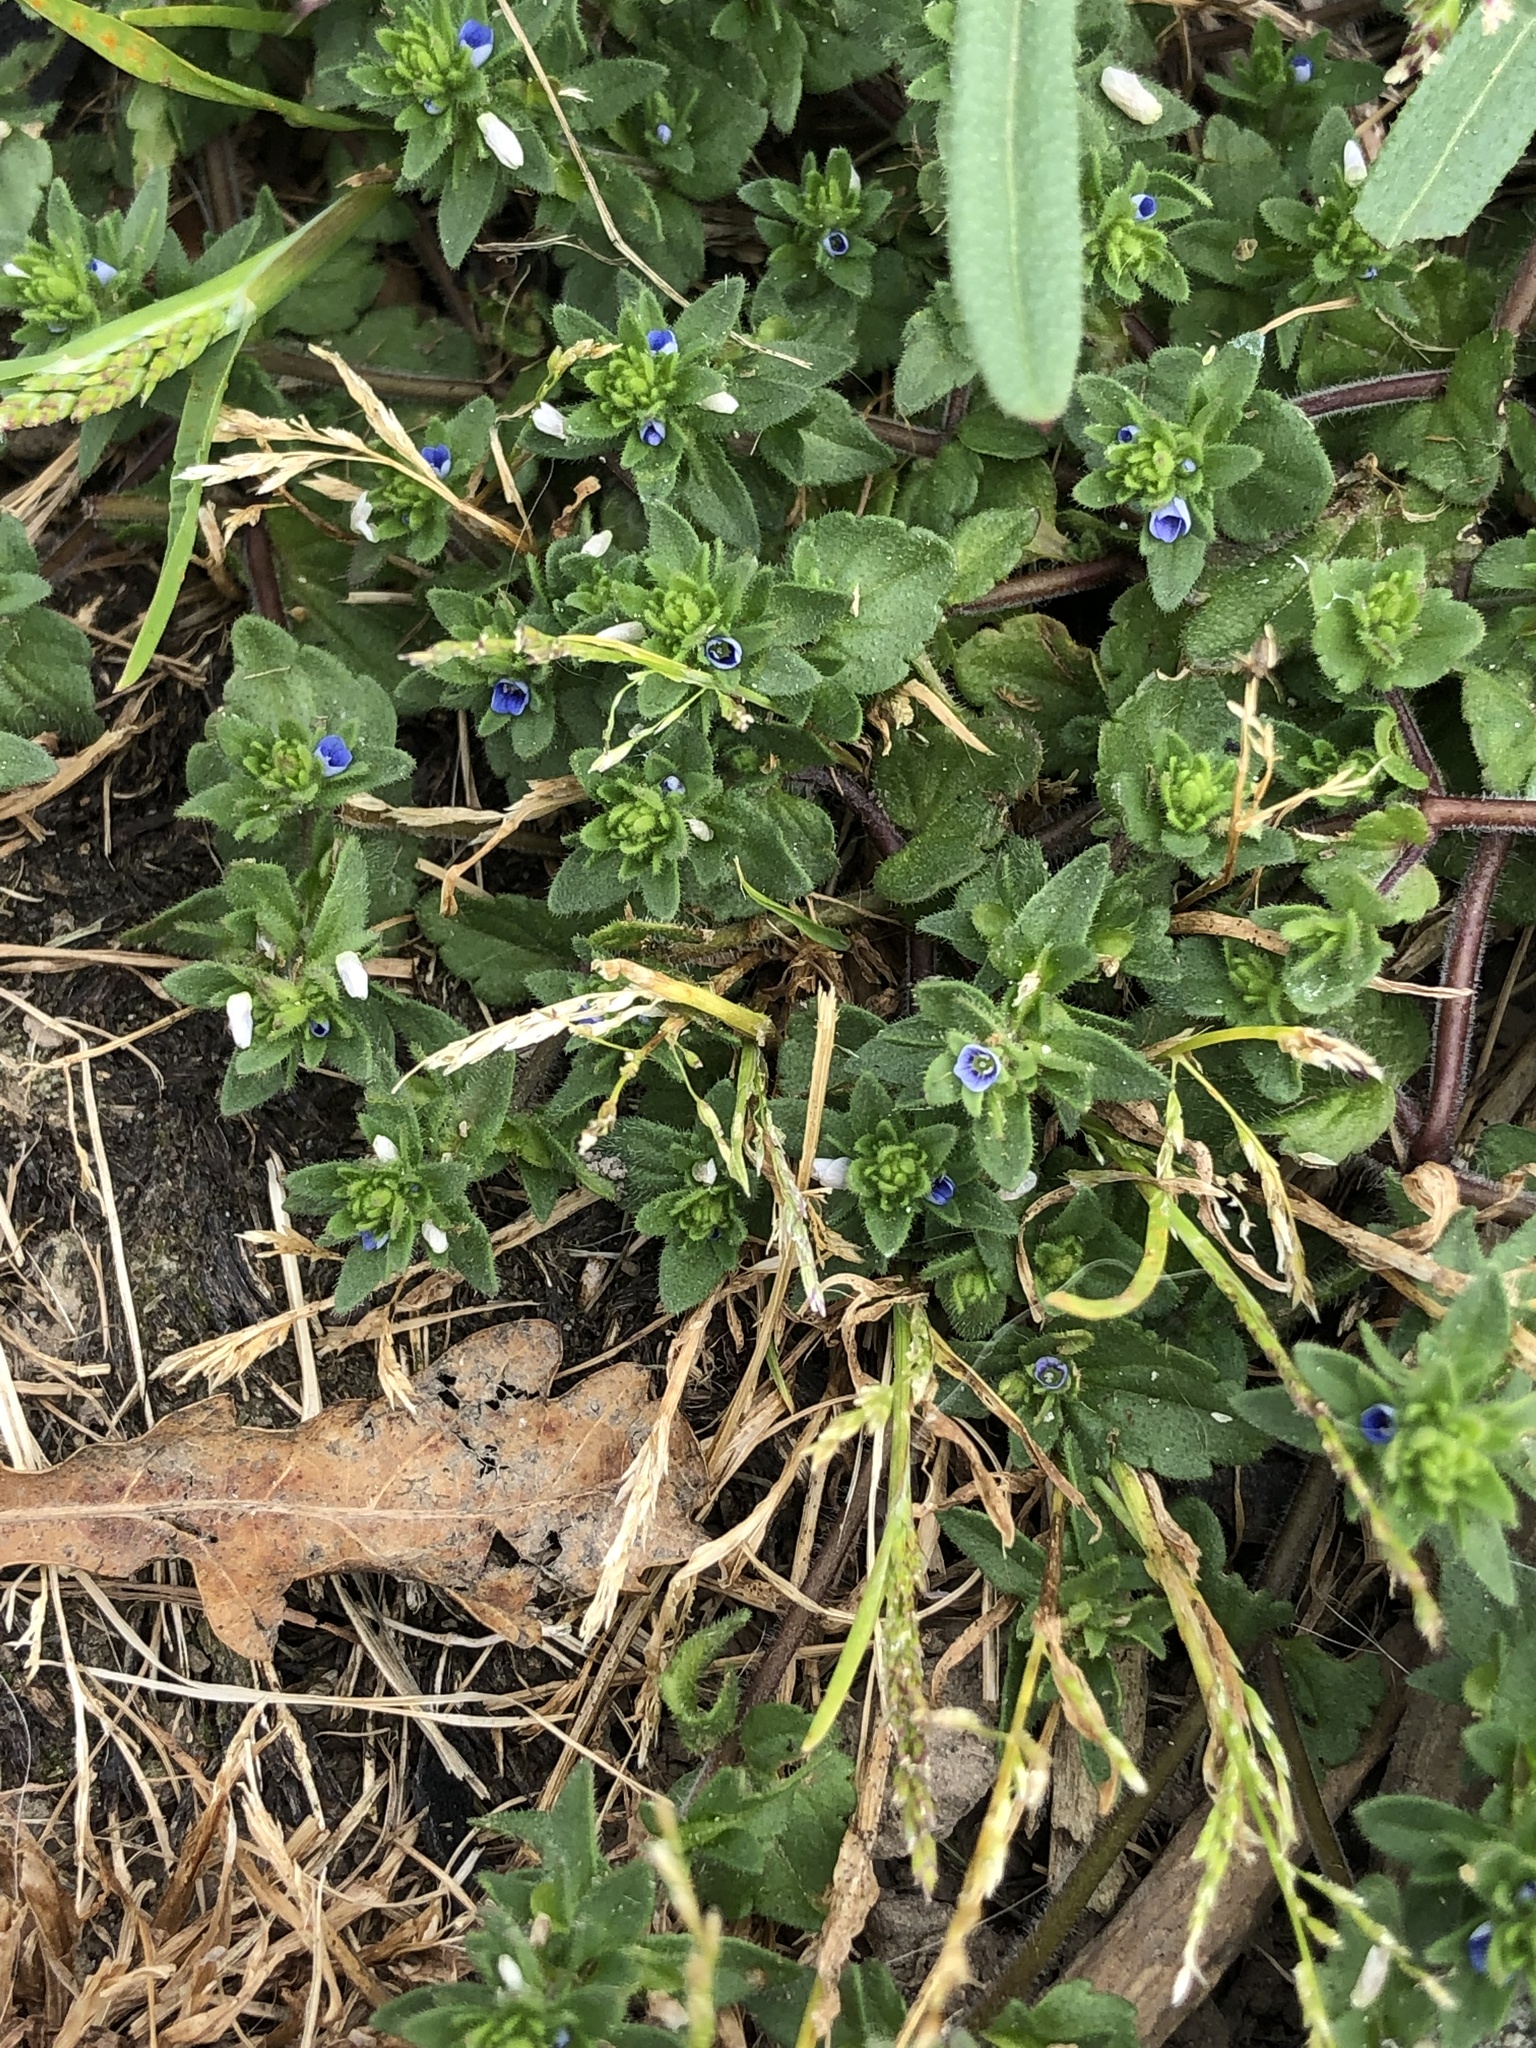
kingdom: Plantae
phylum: Tracheophyta
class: Magnoliopsida
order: Lamiales
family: Plantaginaceae
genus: Veronica
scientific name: Veronica arvensis
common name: Corn speedwell
